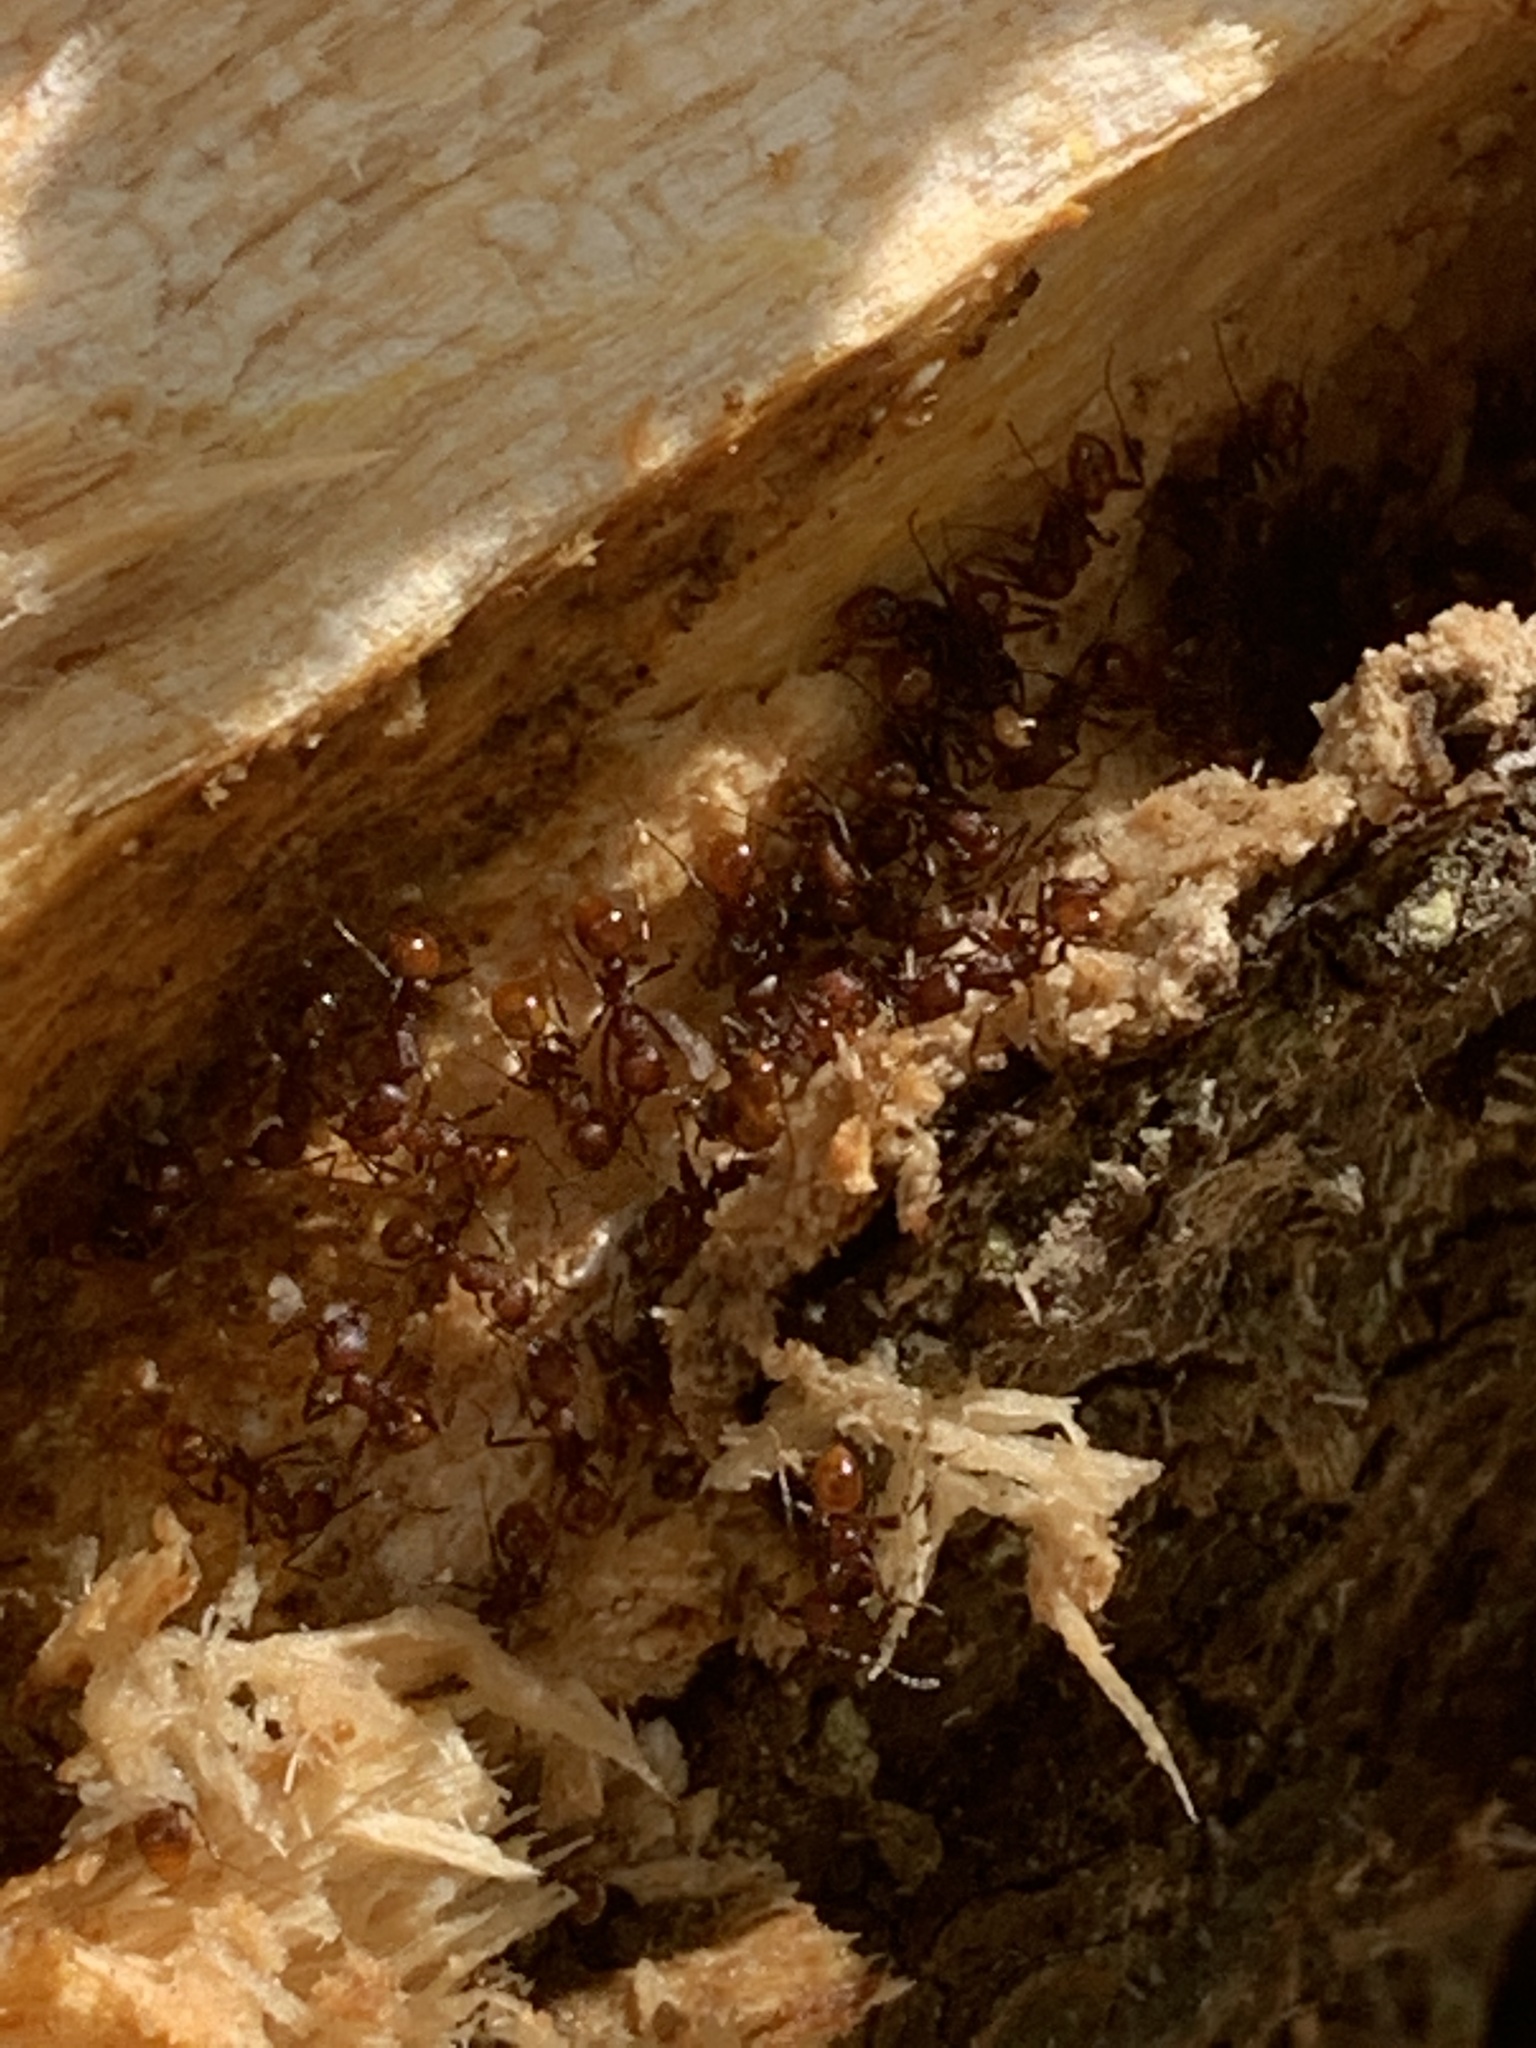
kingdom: Animalia
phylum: Arthropoda
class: Insecta
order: Hymenoptera
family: Formicidae
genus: Aphaenogaster
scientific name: Aphaenogaster tennesseensis
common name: Tennessee thread-waisted ant
